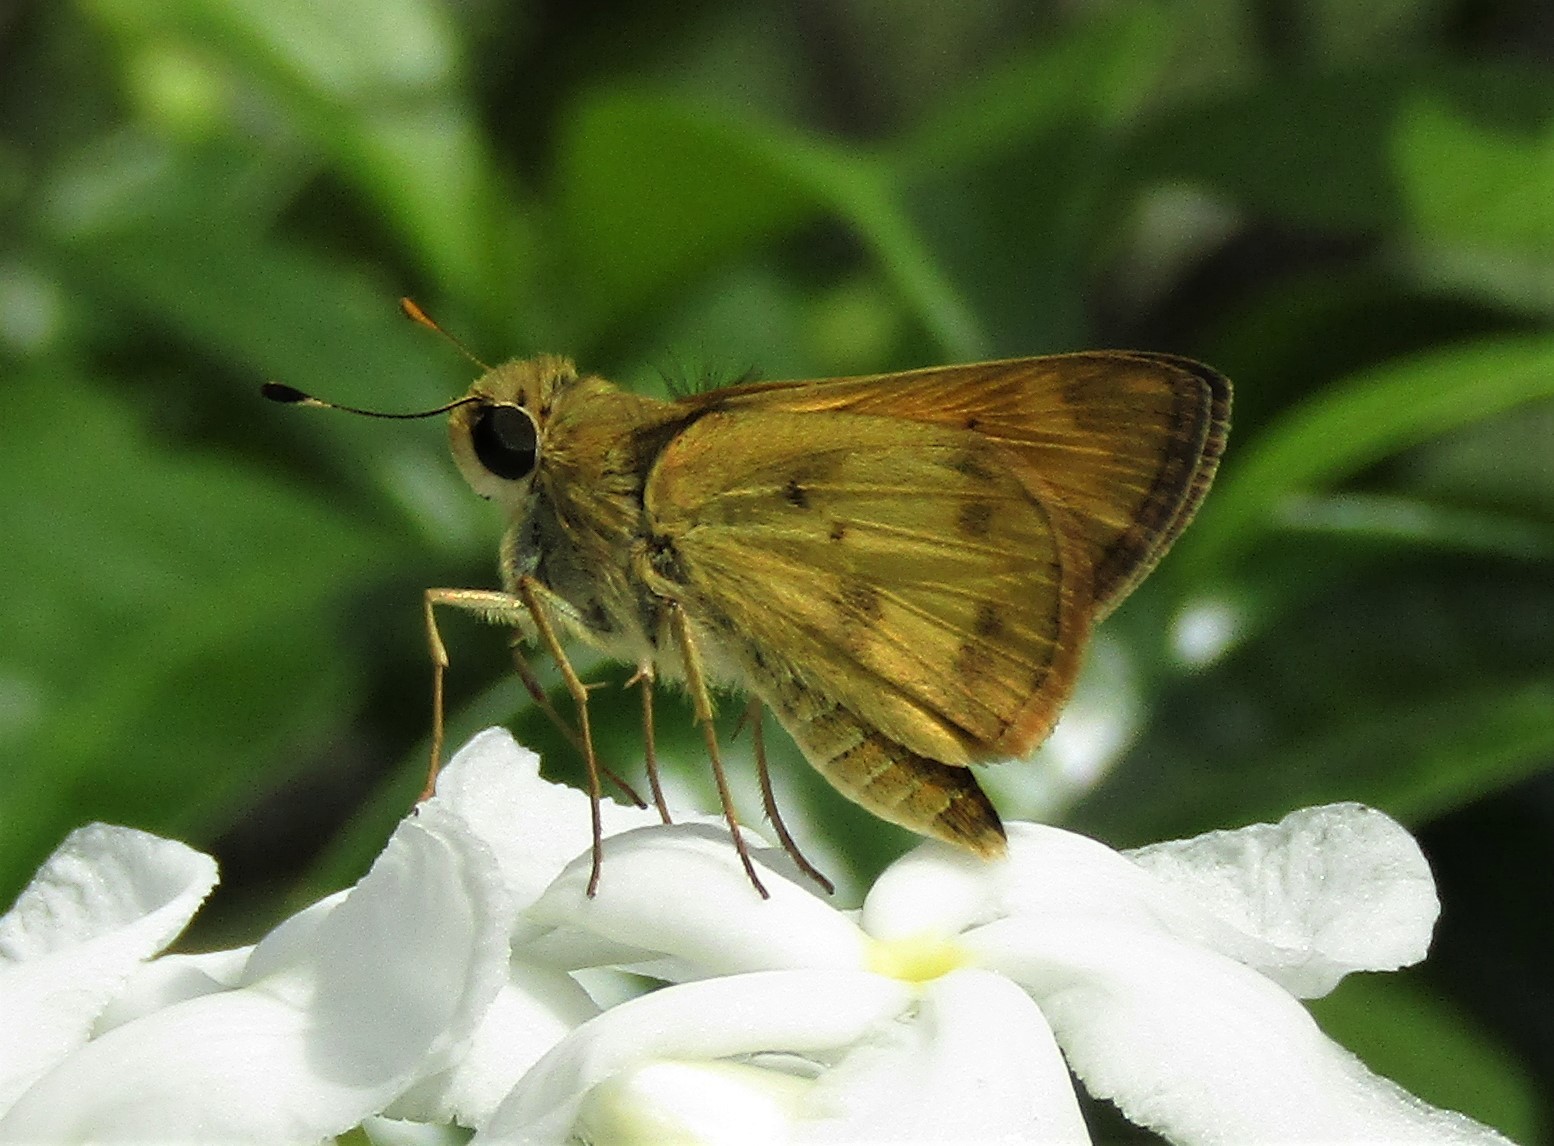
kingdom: Animalia
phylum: Arthropoda
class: Insecta
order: Lepidoptera
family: Hesperiidae
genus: Polites
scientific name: Polites vibex
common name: Whirlabout
